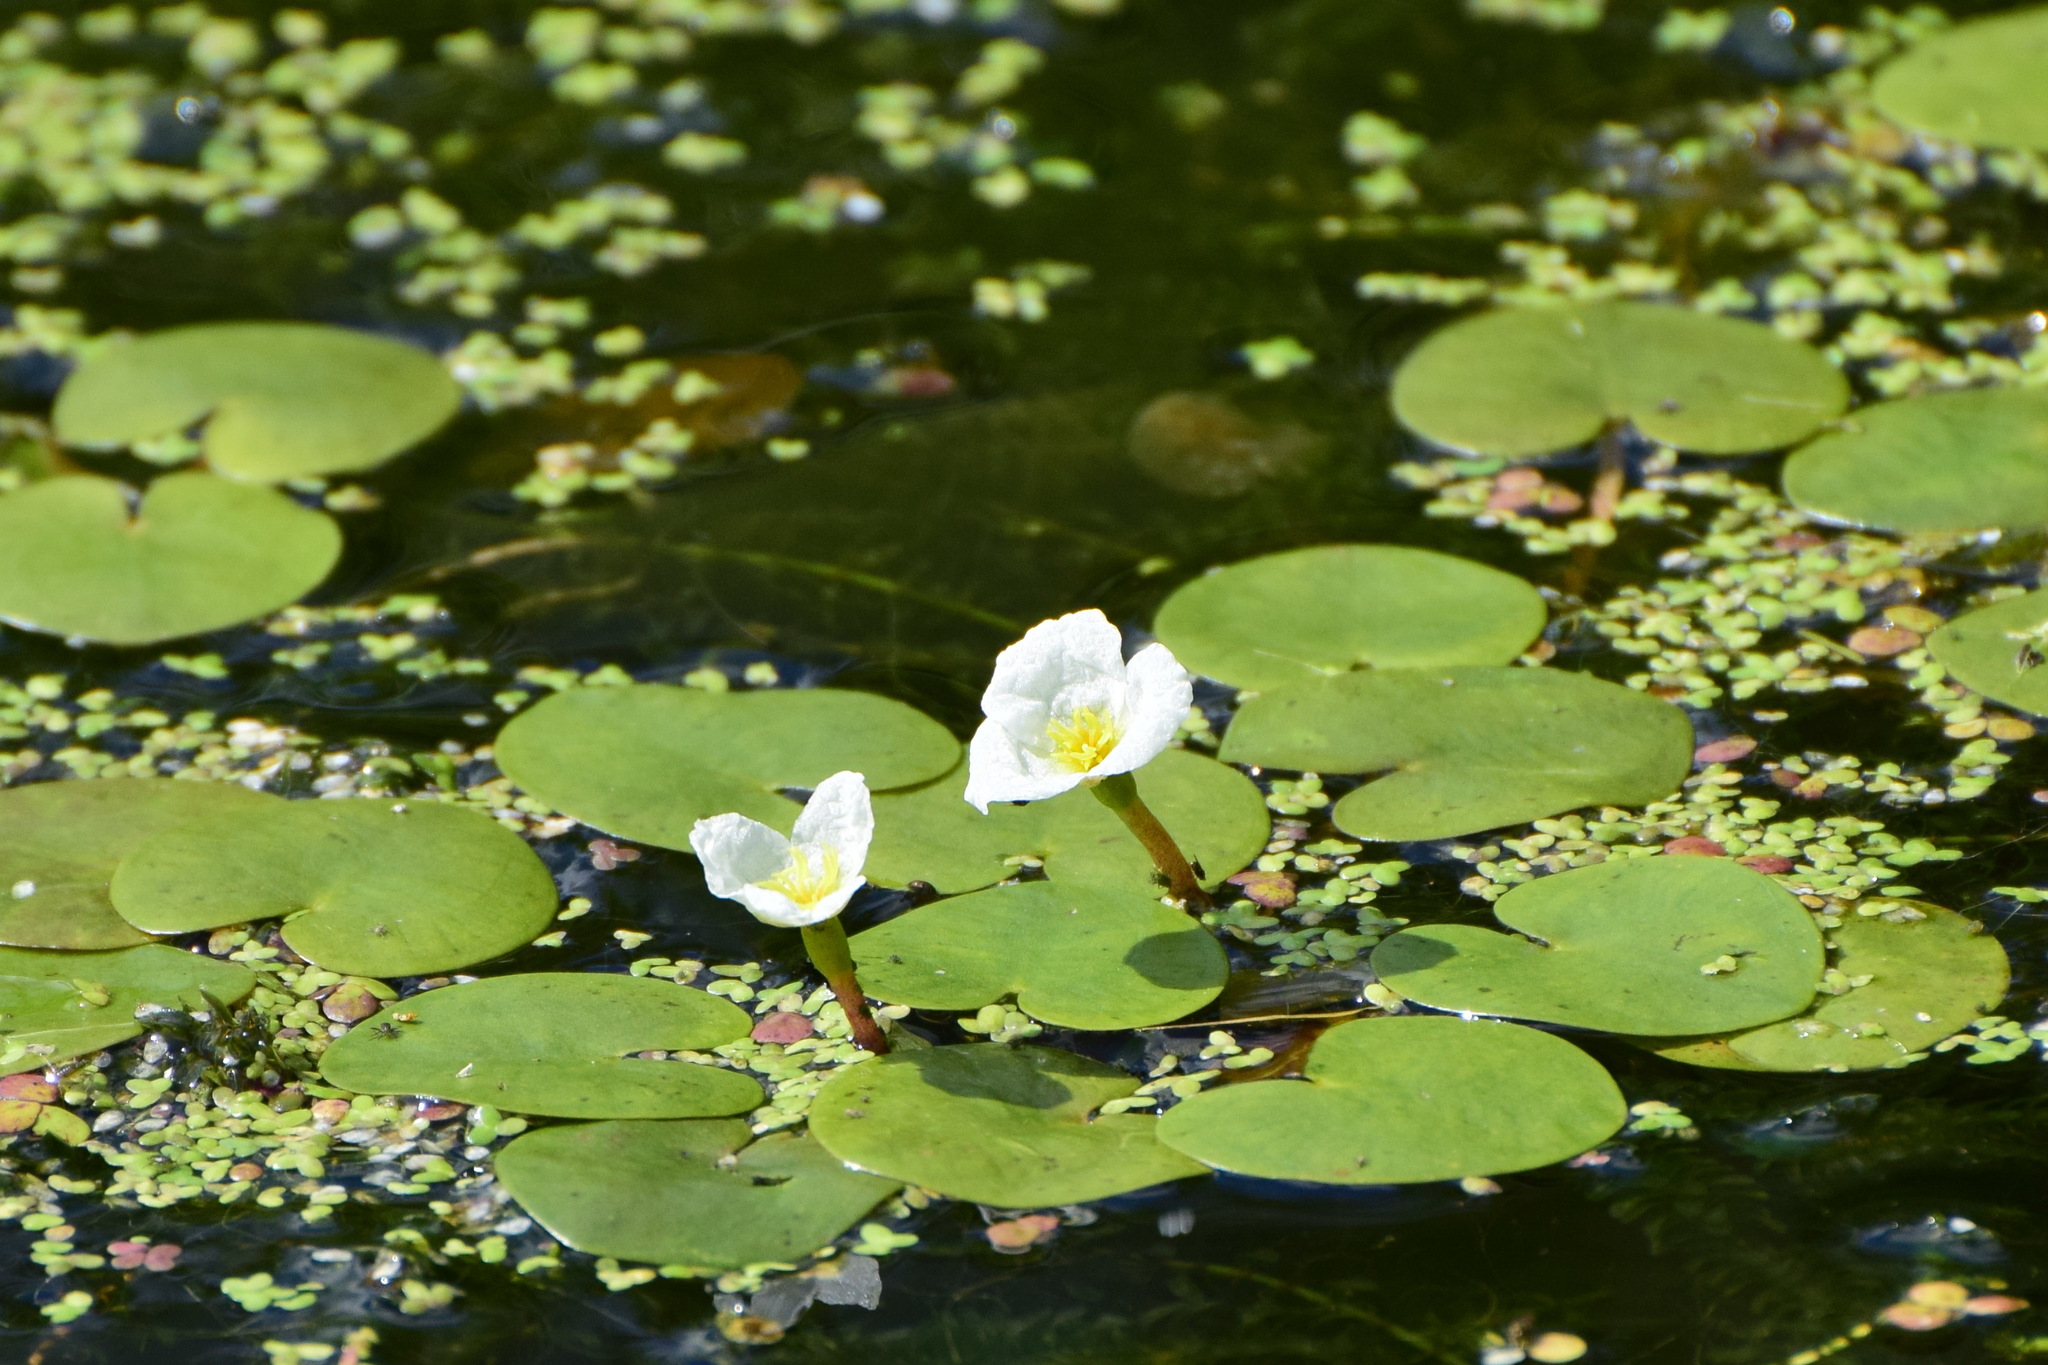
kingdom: Plantae
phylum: Tracheophyta
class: Liliopsida
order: Alismatales
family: Hydrocharitaceae
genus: Hydrocharis
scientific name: Hydrocharis morsus-ranae
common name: Frogbit
